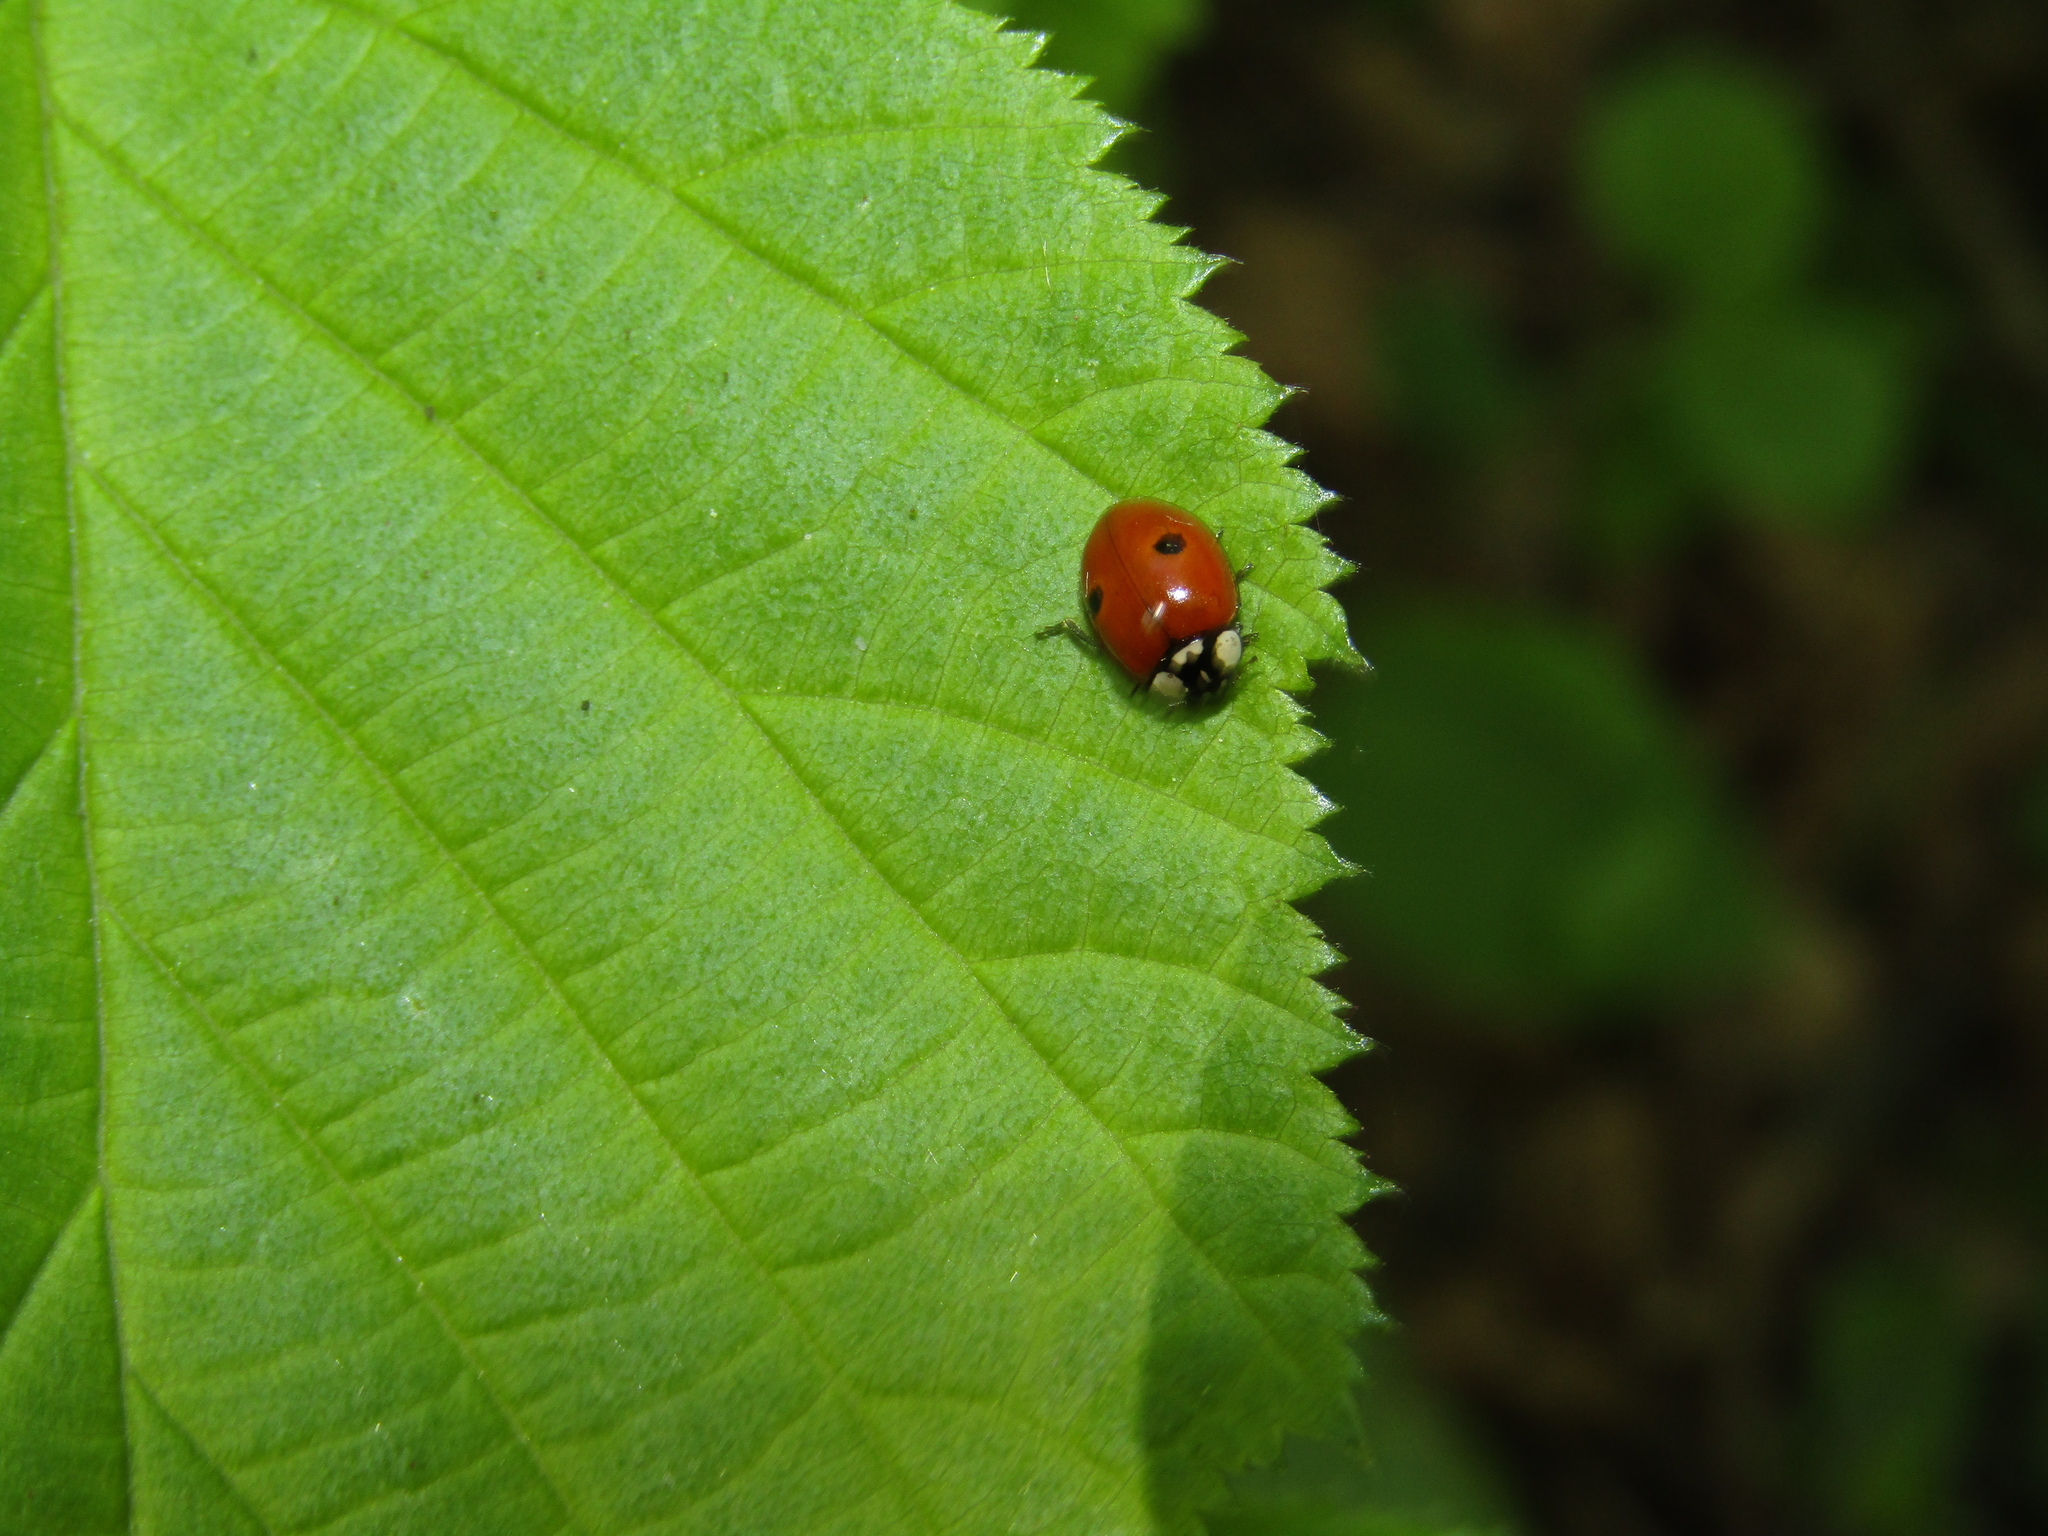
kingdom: Animalia
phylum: Arthropoda
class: Insecta
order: Coleoptera
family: Coccinellidae
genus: Adalia
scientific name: Adalia bipunctata
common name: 2-spot ladybird
